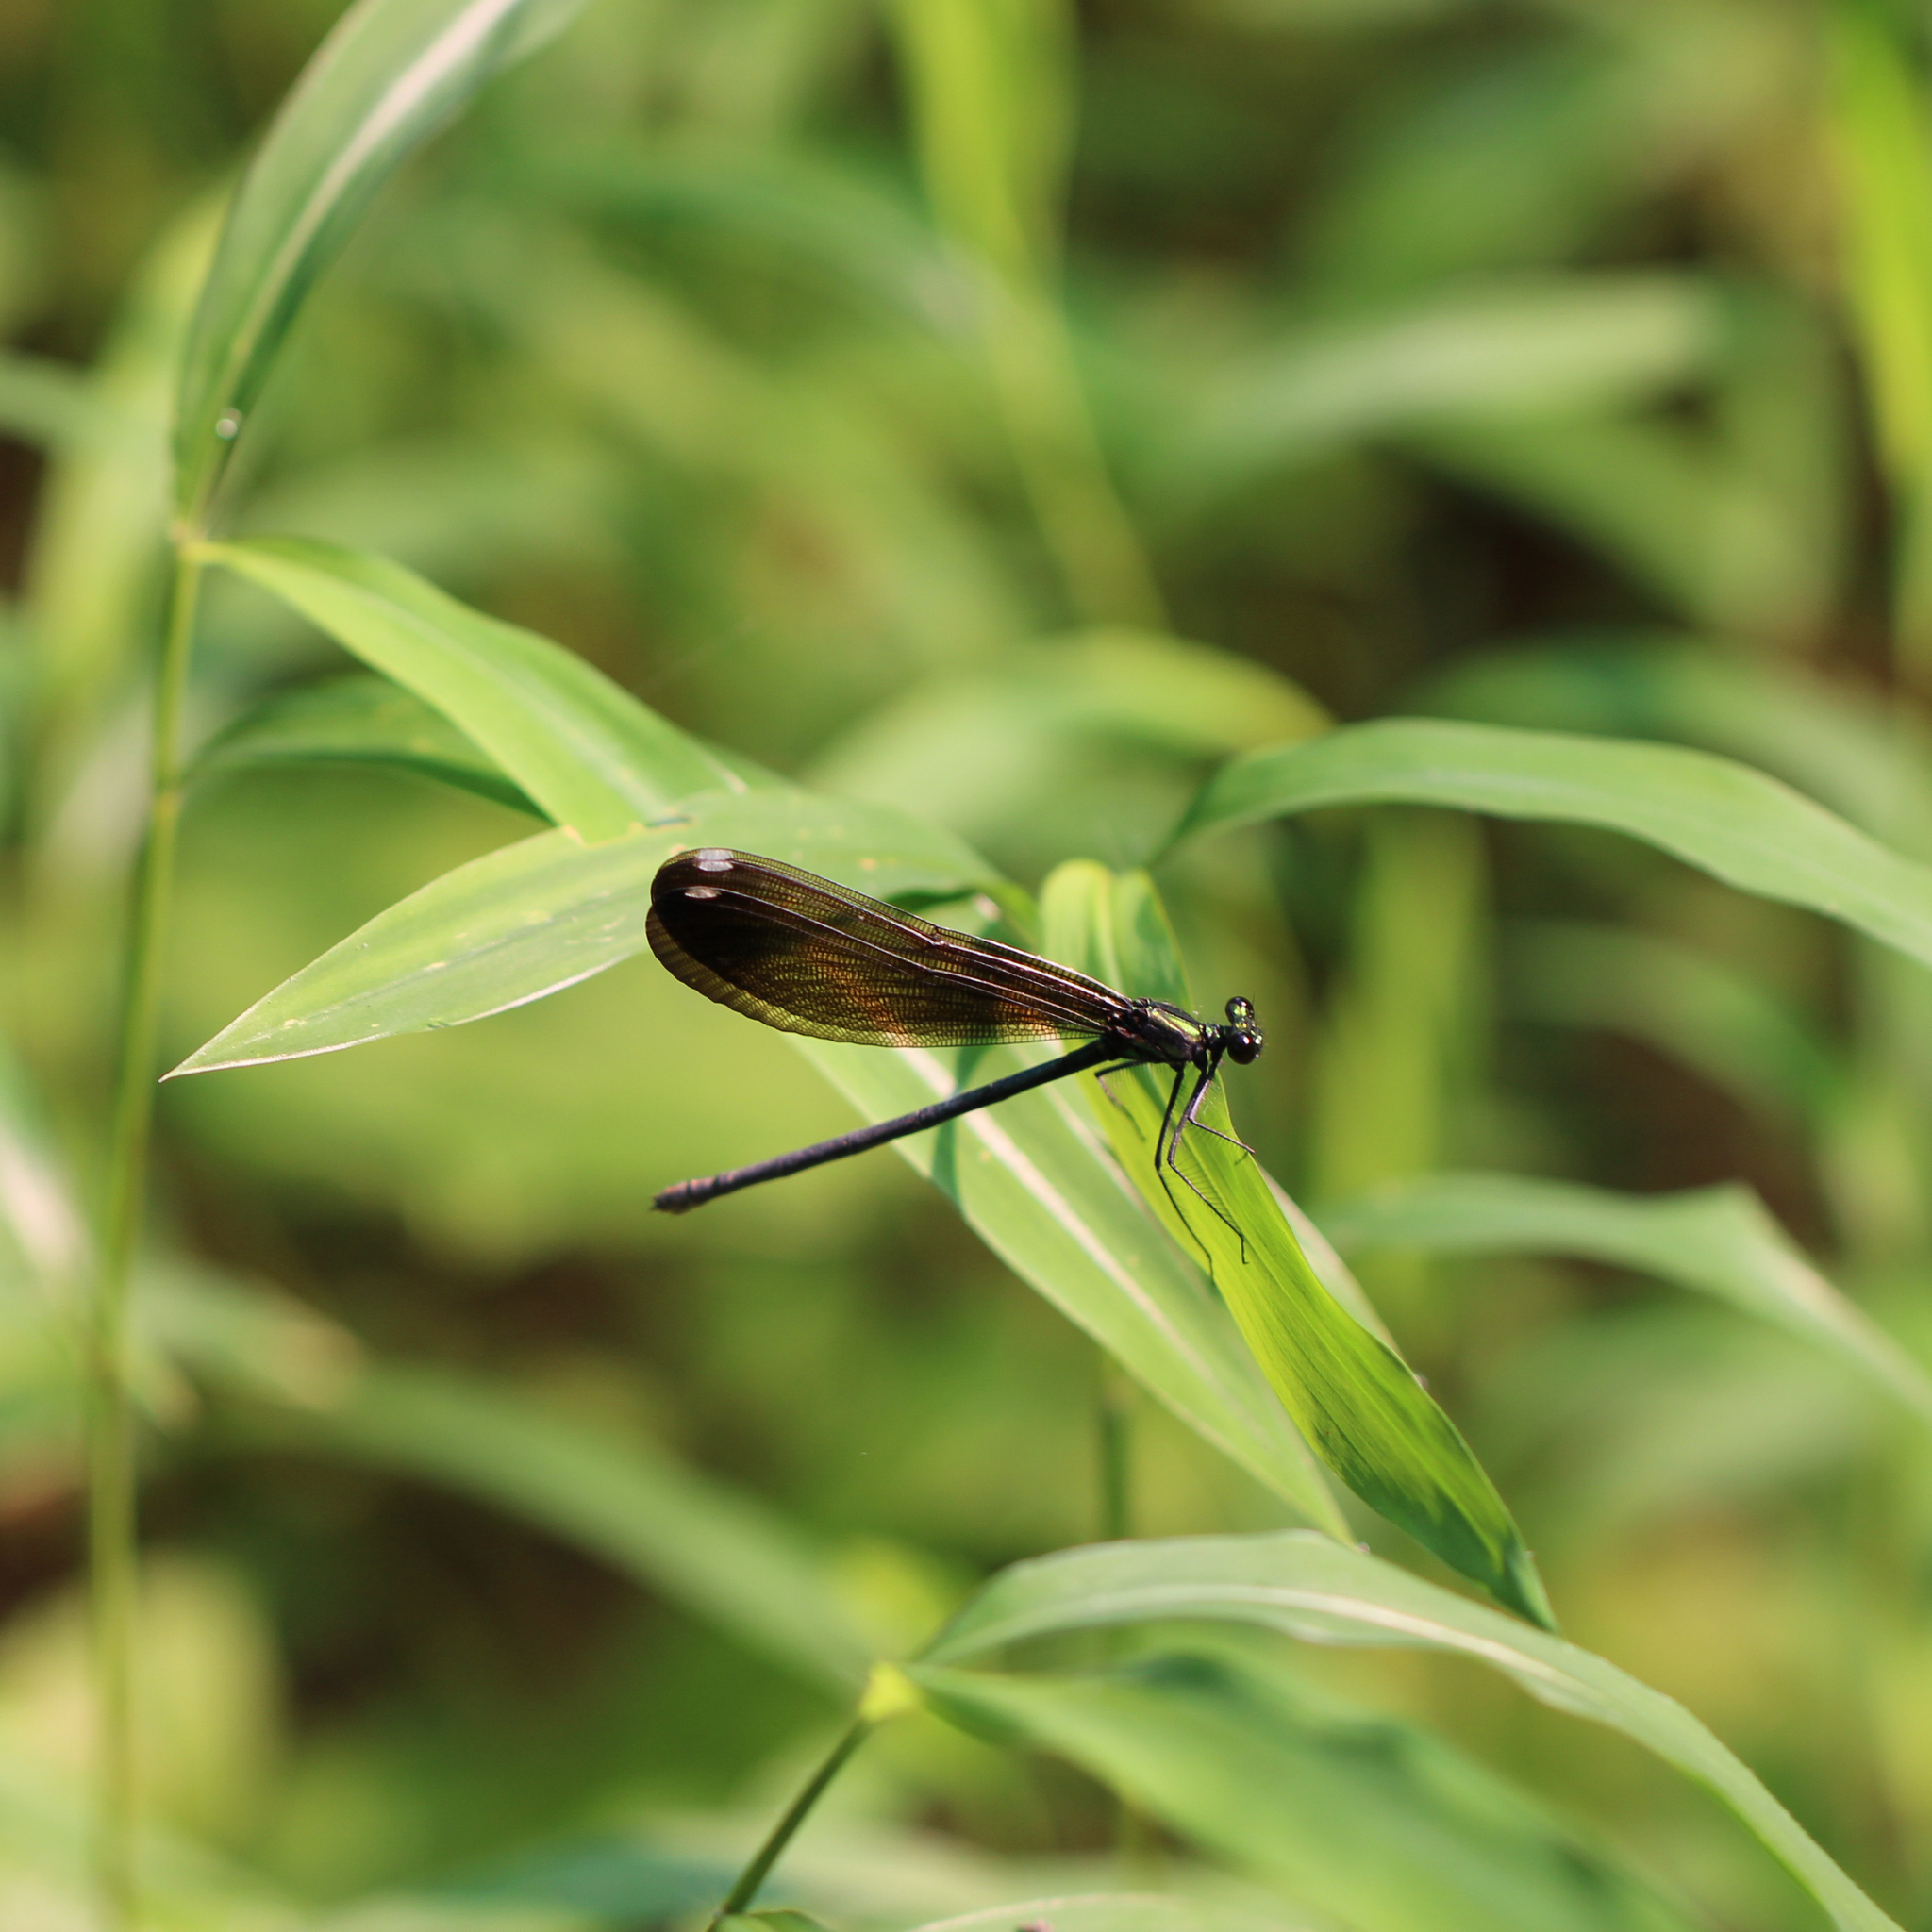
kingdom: Animalia
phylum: Arthropoda
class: Insecta
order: Odonata
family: Calopterygidae
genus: Calopteryx
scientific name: Calopteryx maculata
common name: Ebony jewelwing
